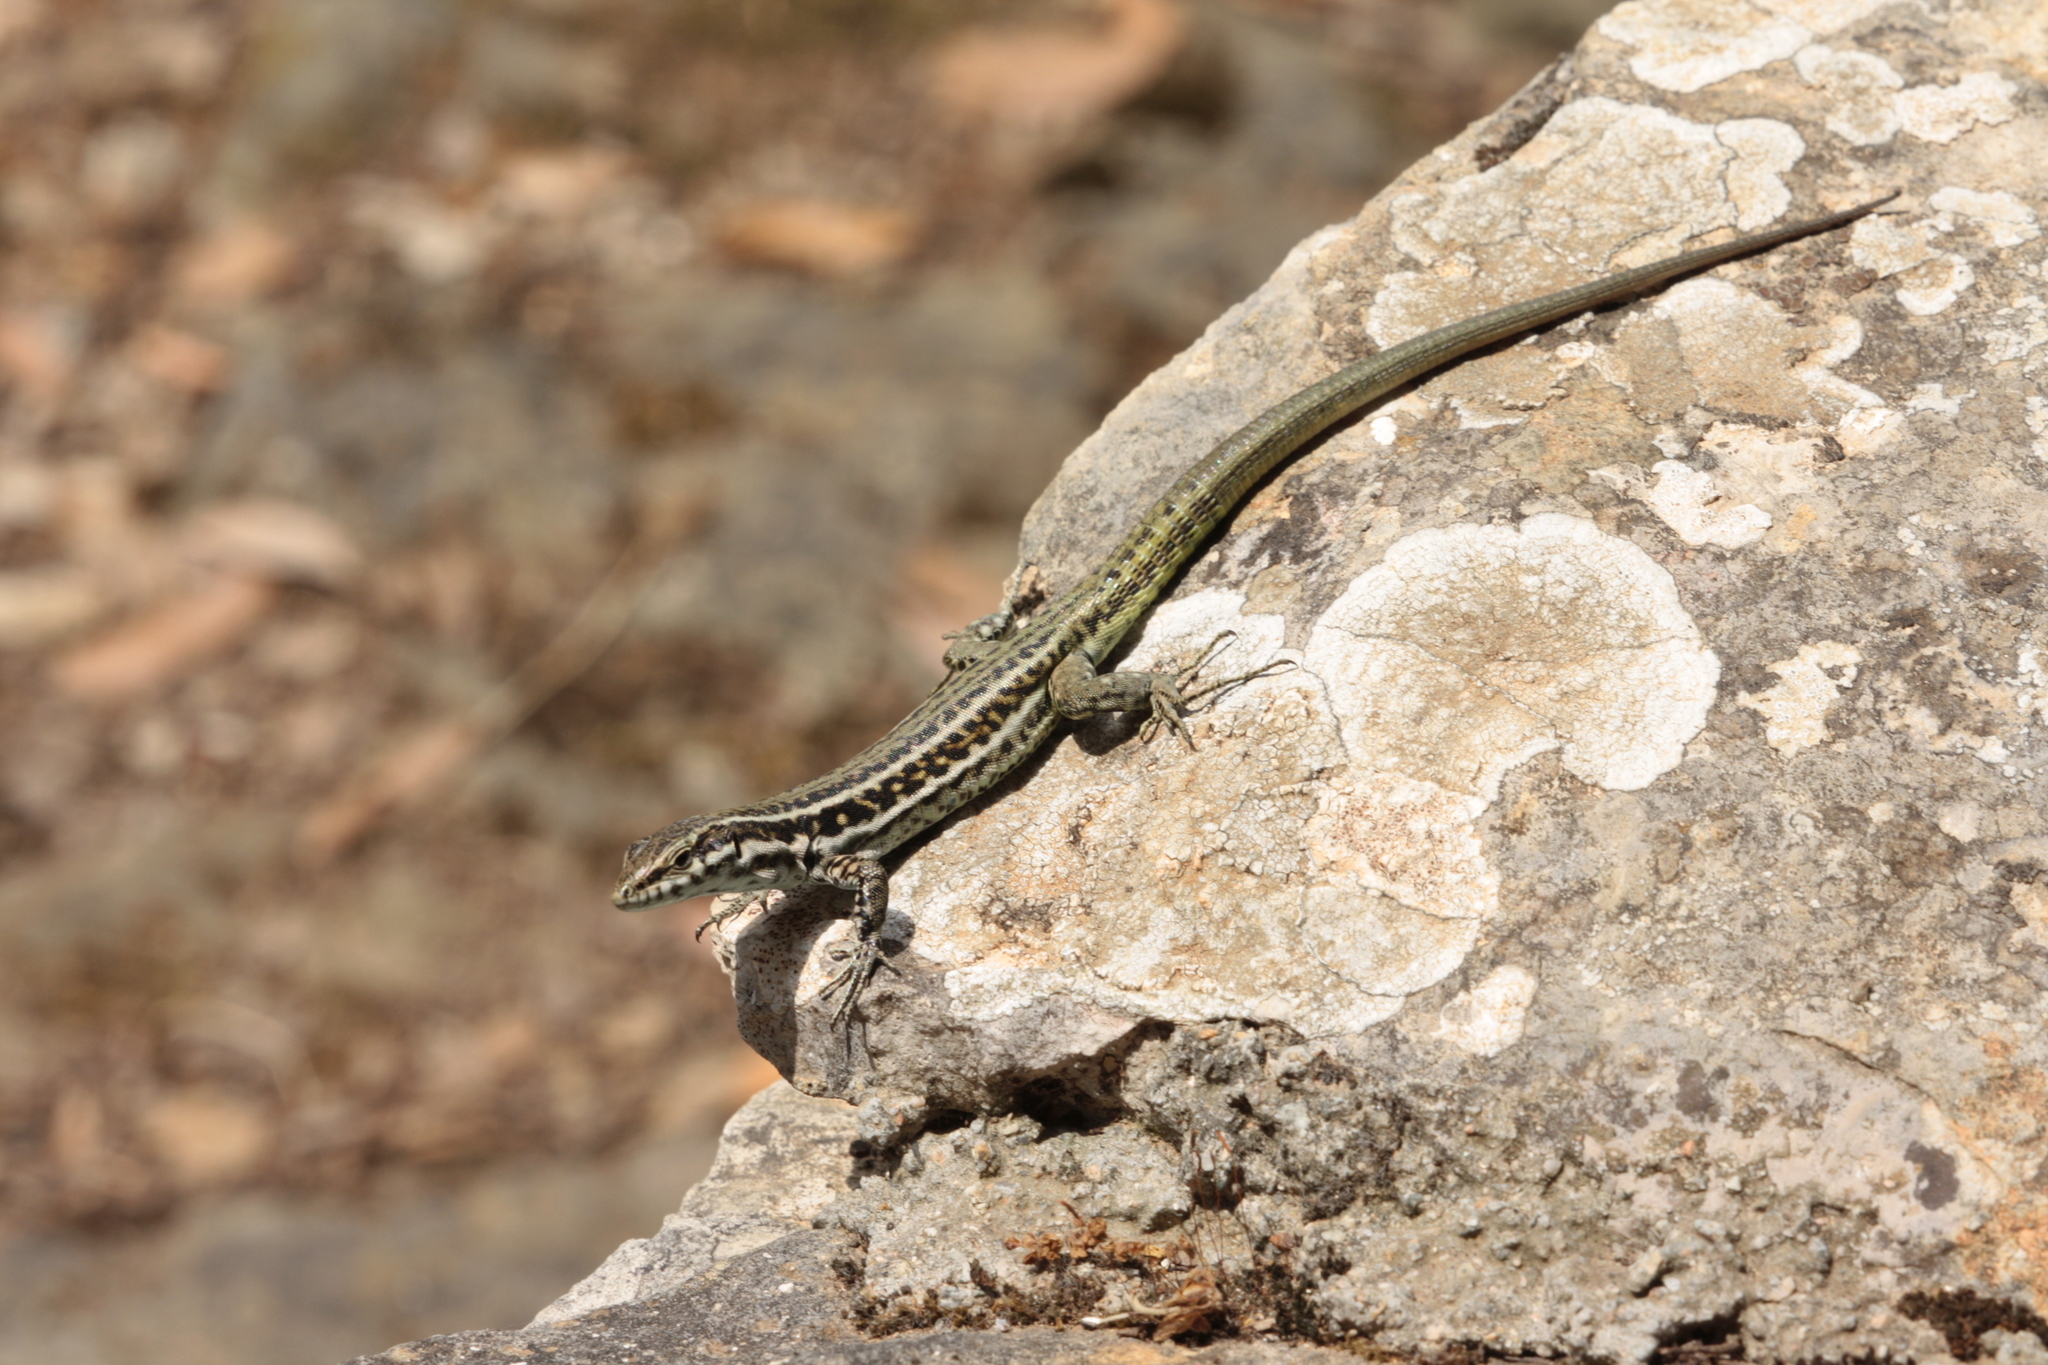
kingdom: Animalia
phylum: Chordata
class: Squamata
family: Lacertidae
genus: Podarcis
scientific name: Podarcis tiliguerta
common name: Tyrrhenian wall lizard
